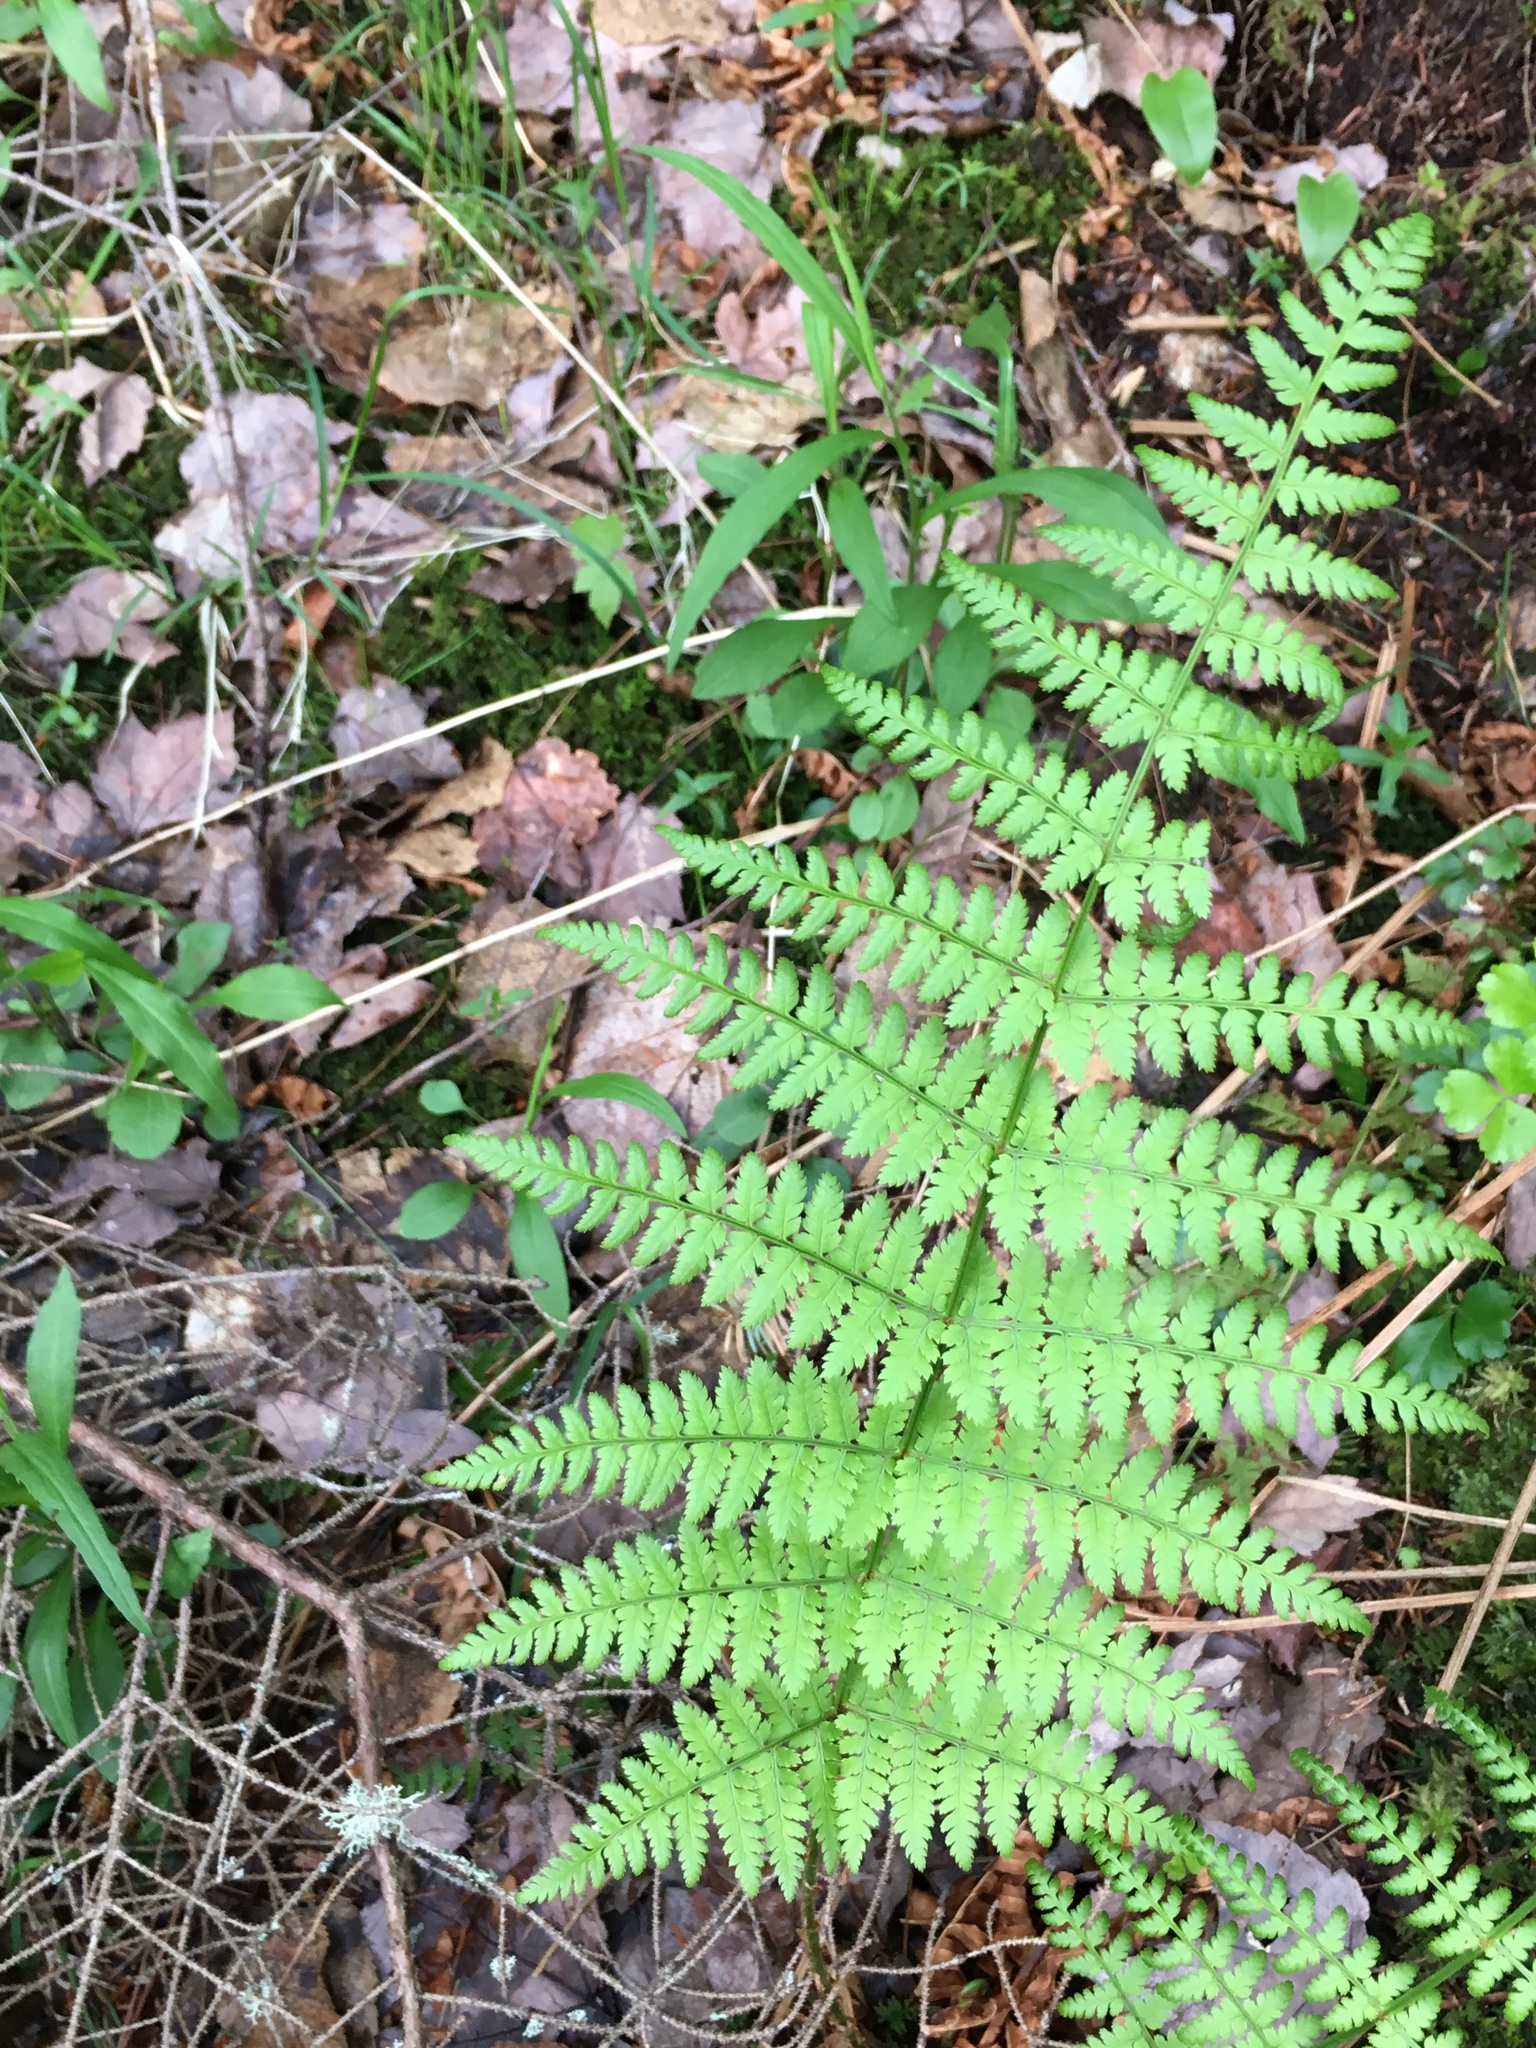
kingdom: Plantae
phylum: Tracheophyta
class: Polypodiopsida
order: Polypodiales
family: Dryopteridaceae
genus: Dryopteris
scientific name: Dryopteris intermedia
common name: Evergreen wood fern
